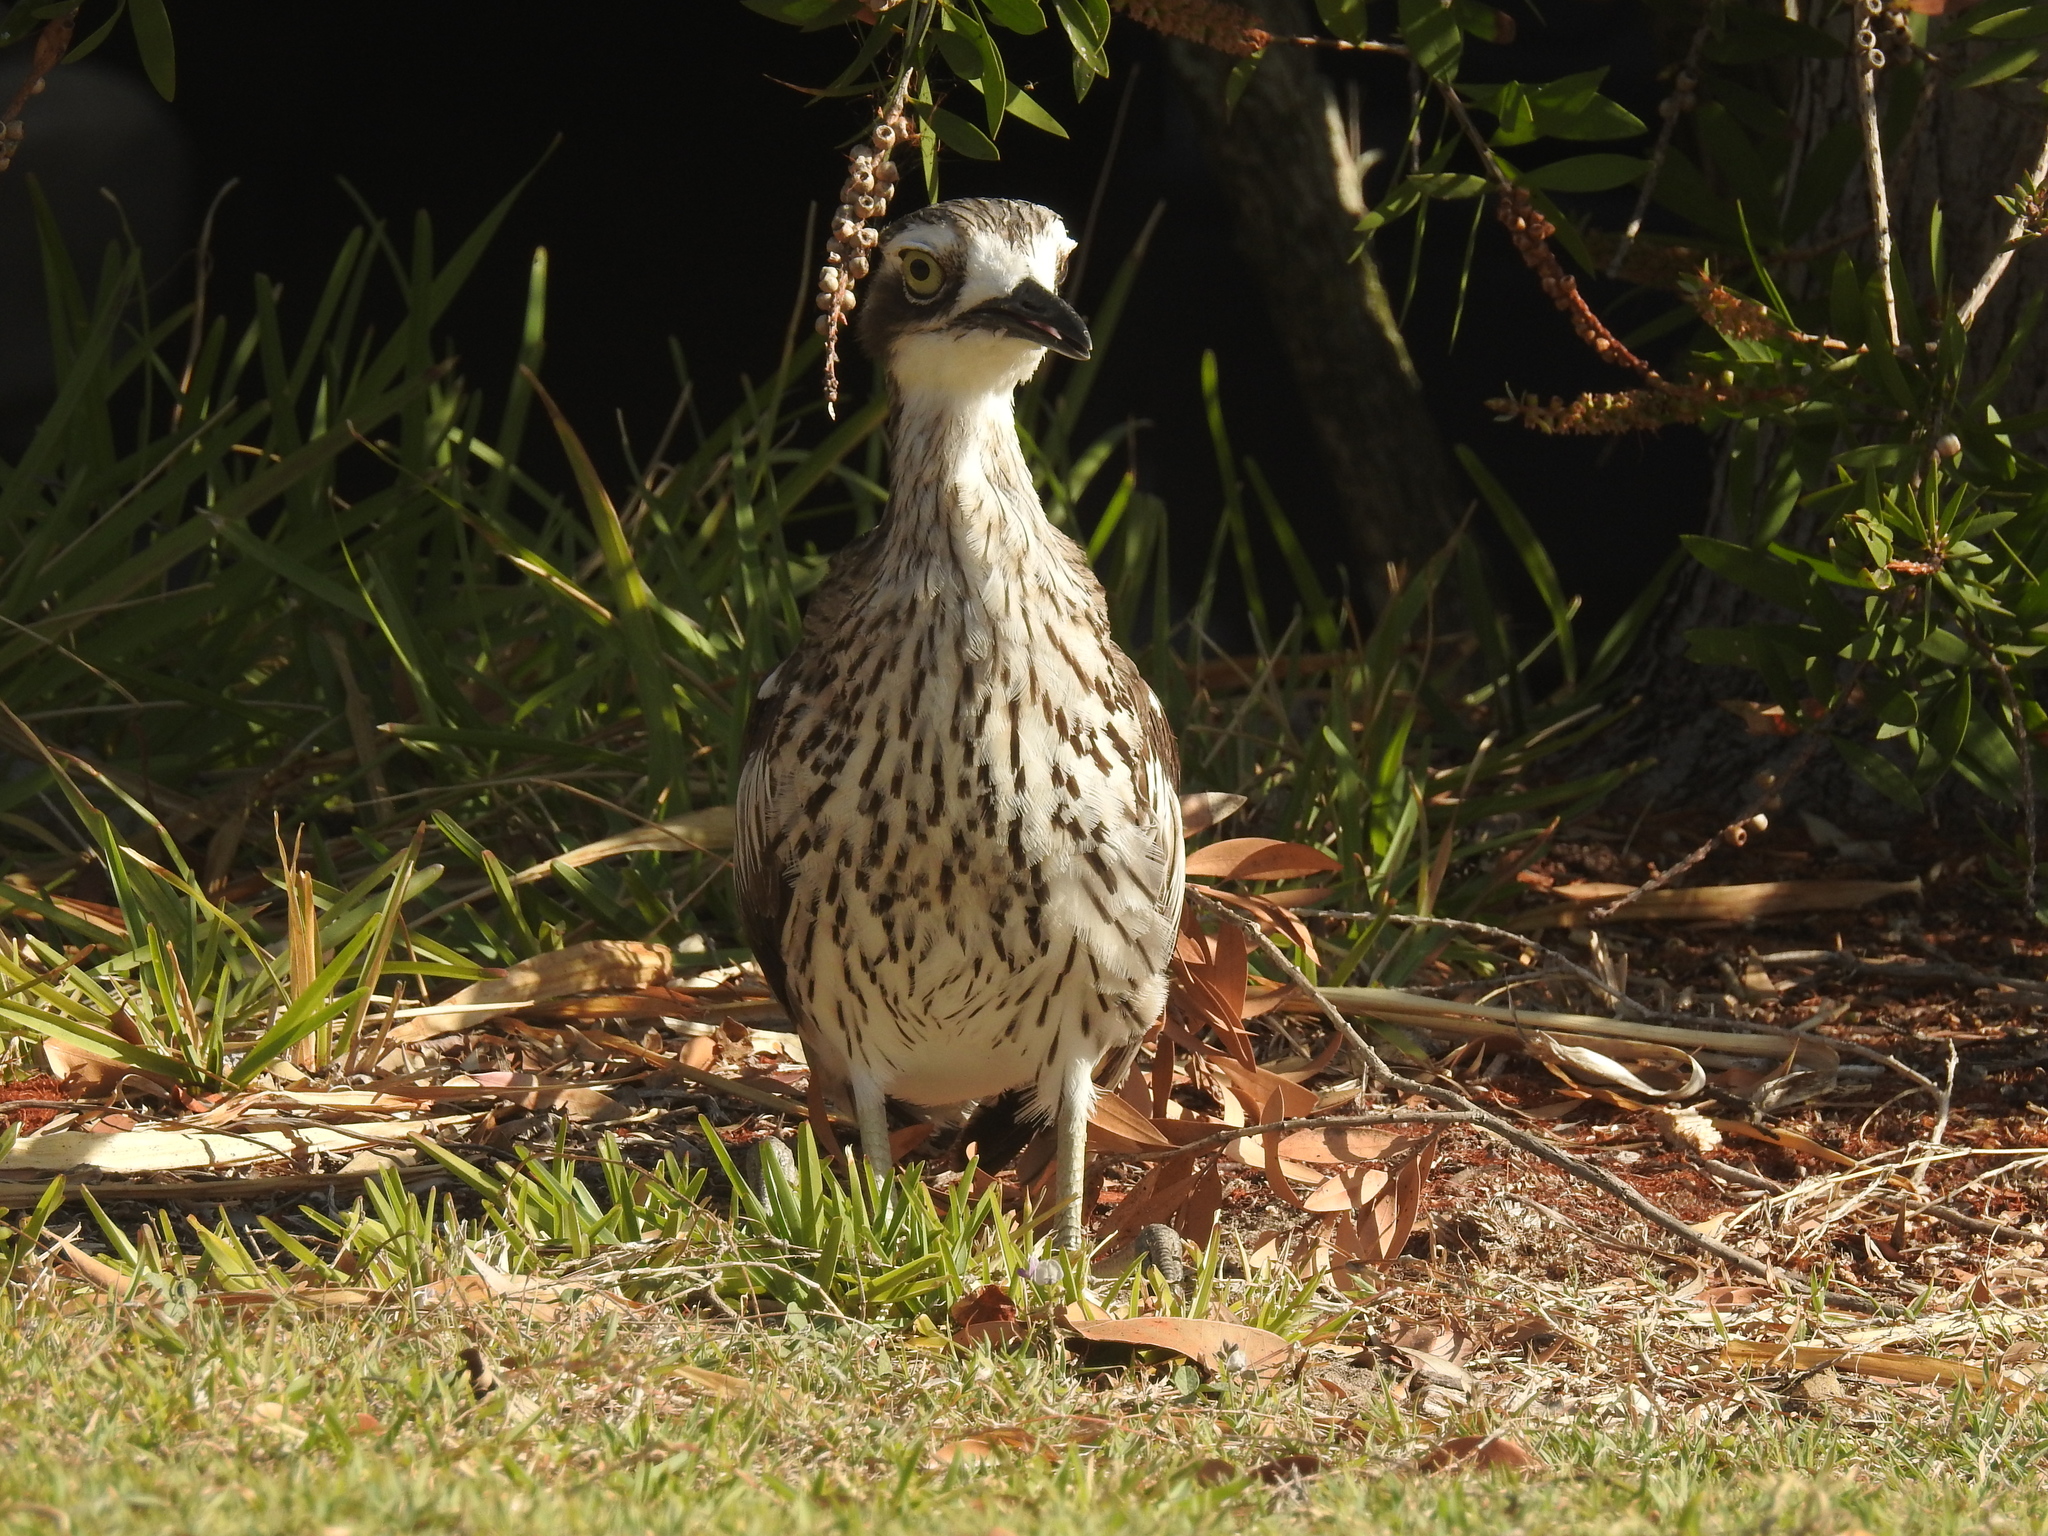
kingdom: Animalia
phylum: Chordata
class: Aves
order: Charadriiformes
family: Burhinidae
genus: Burhinus
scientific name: Burhinus grallarius
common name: Bush stone-curlew
